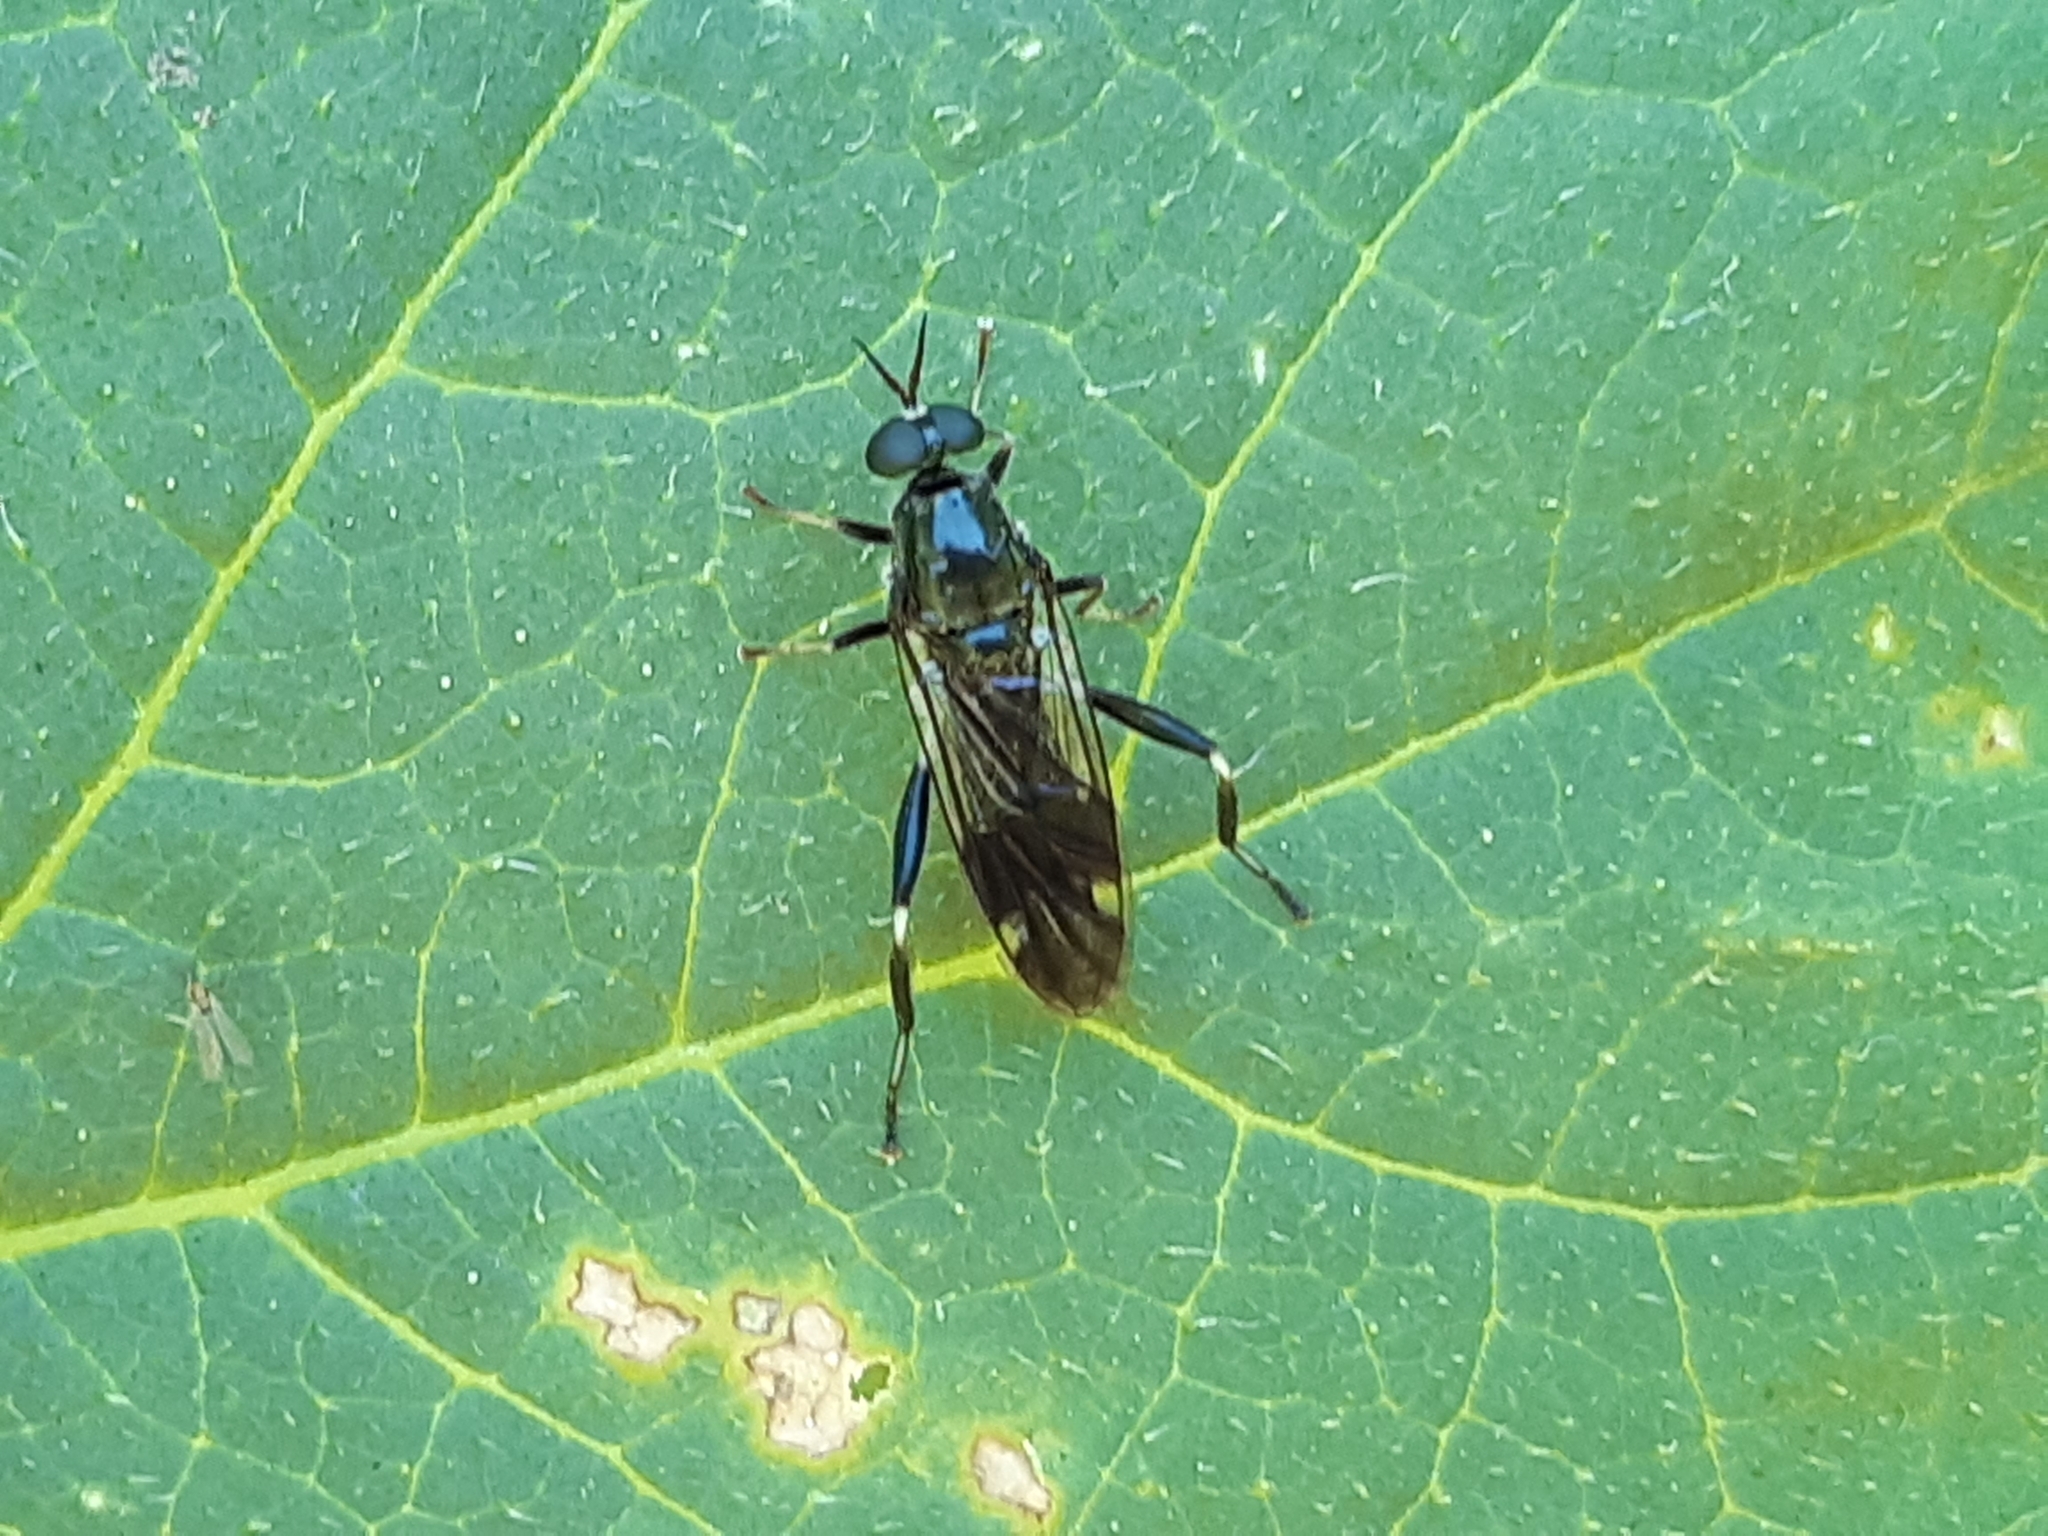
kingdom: Animalia
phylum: Arthropoda
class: Insecta
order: Diptera
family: Stratiomyidae
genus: Exaireta
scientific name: Exaireta spinigera
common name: Blue soldier fly
